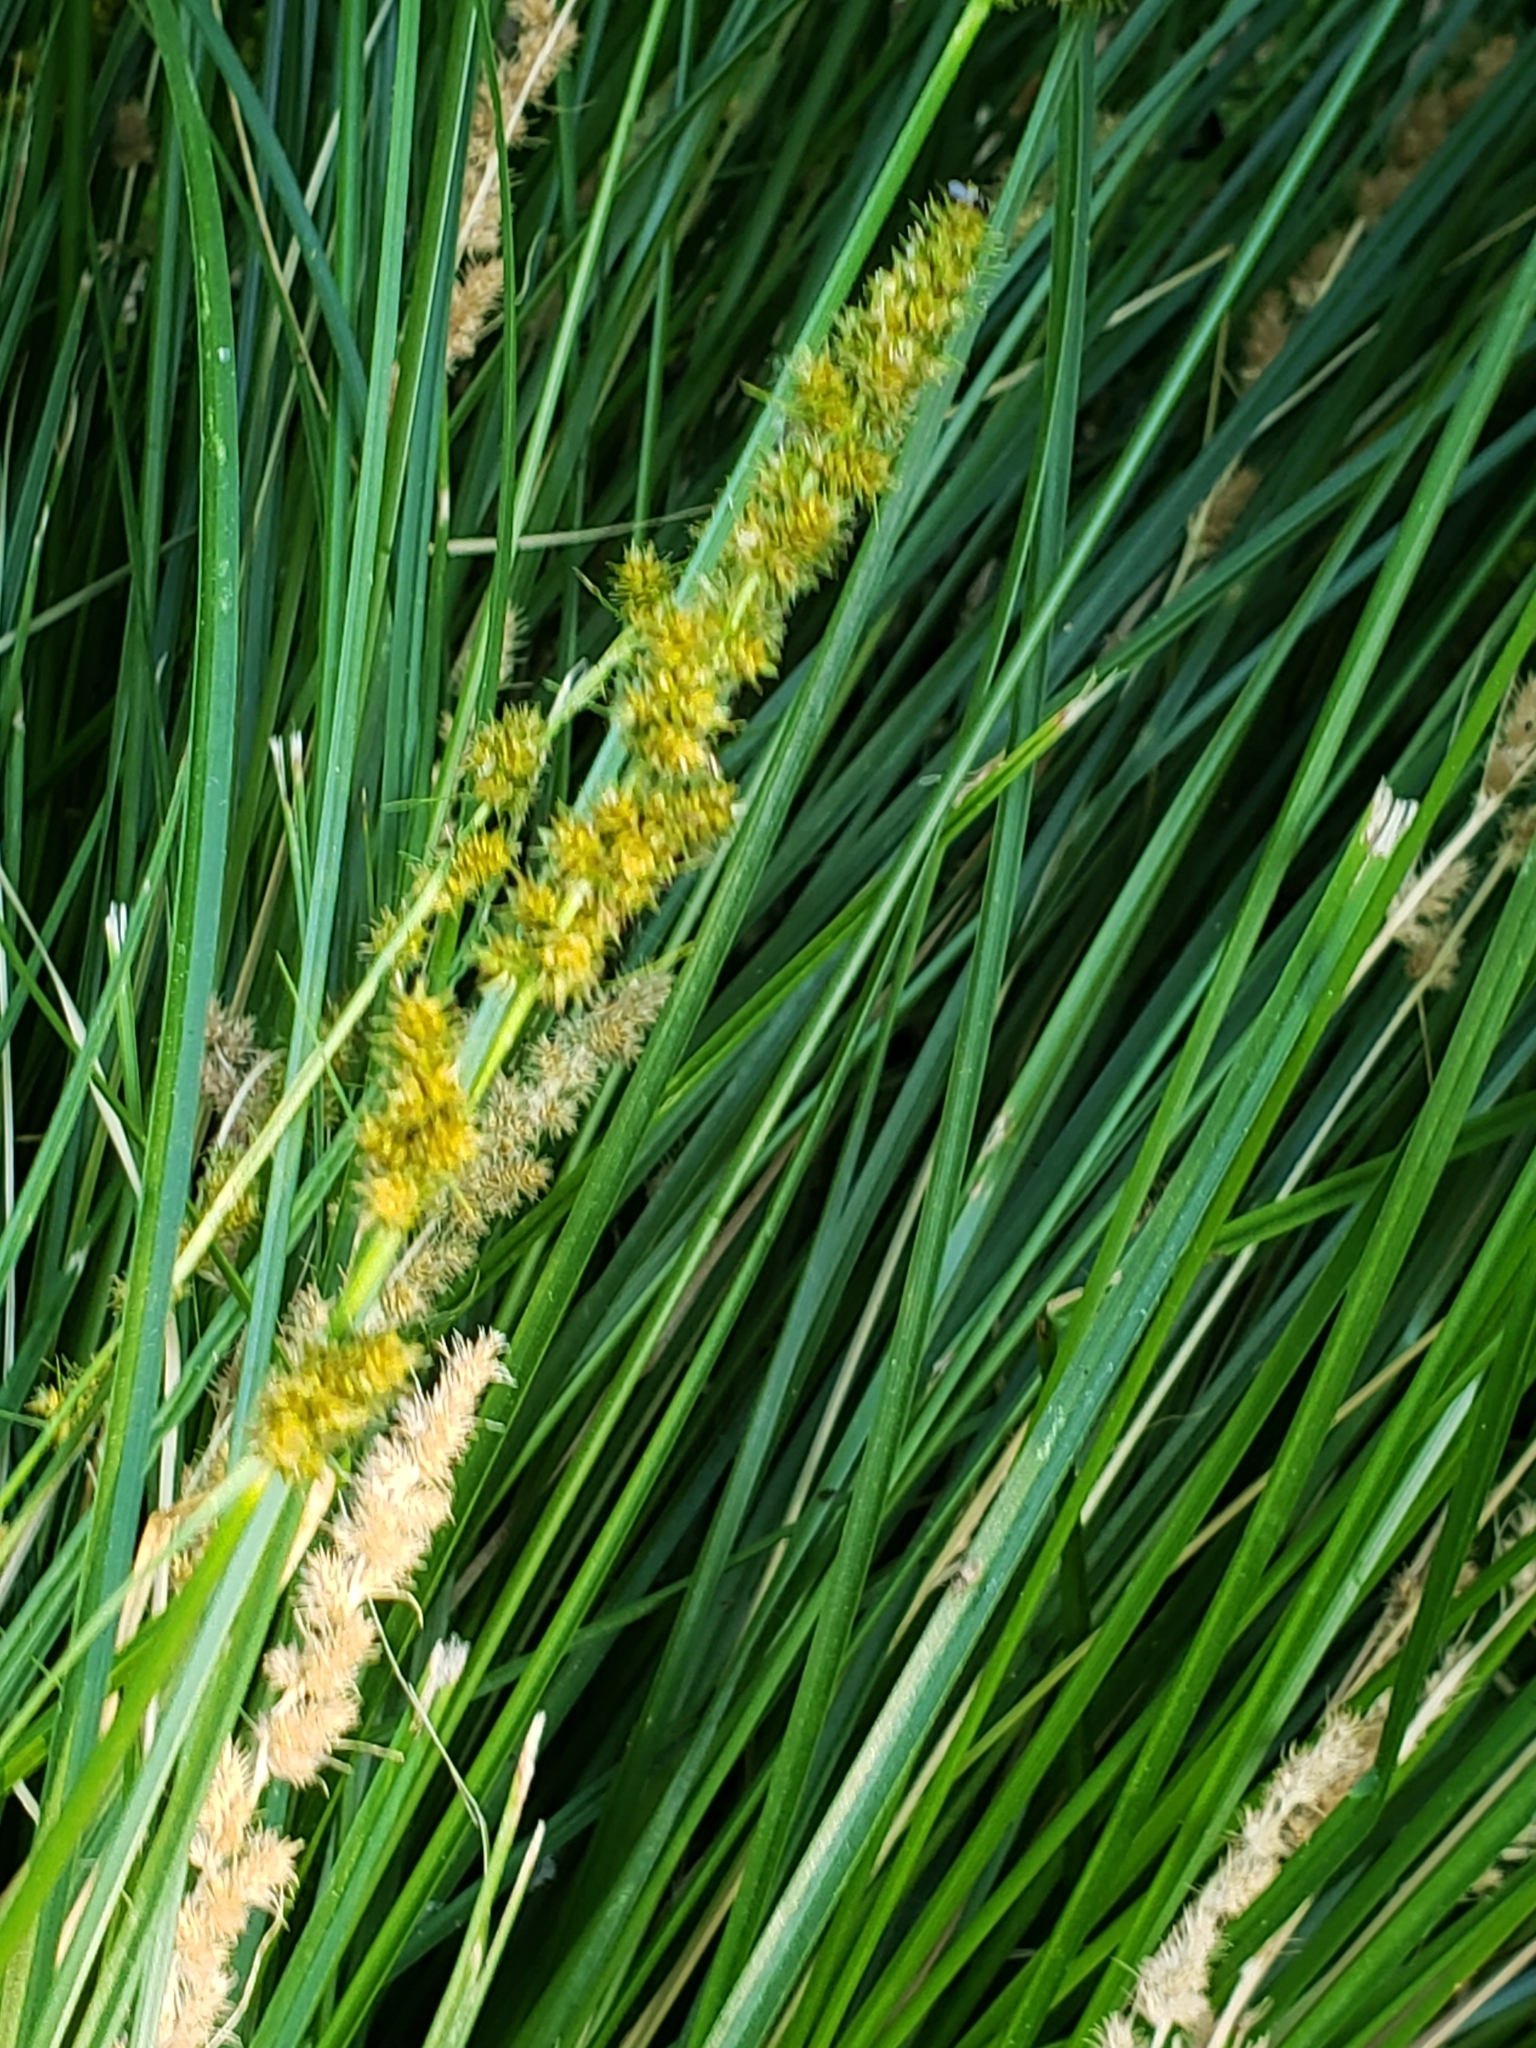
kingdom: Plantae
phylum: Tracheophyta
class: Liliopsida
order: Poales
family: Cyperaceae
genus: Carex
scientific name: Carex vulpinoidea
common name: American fox-sedge
